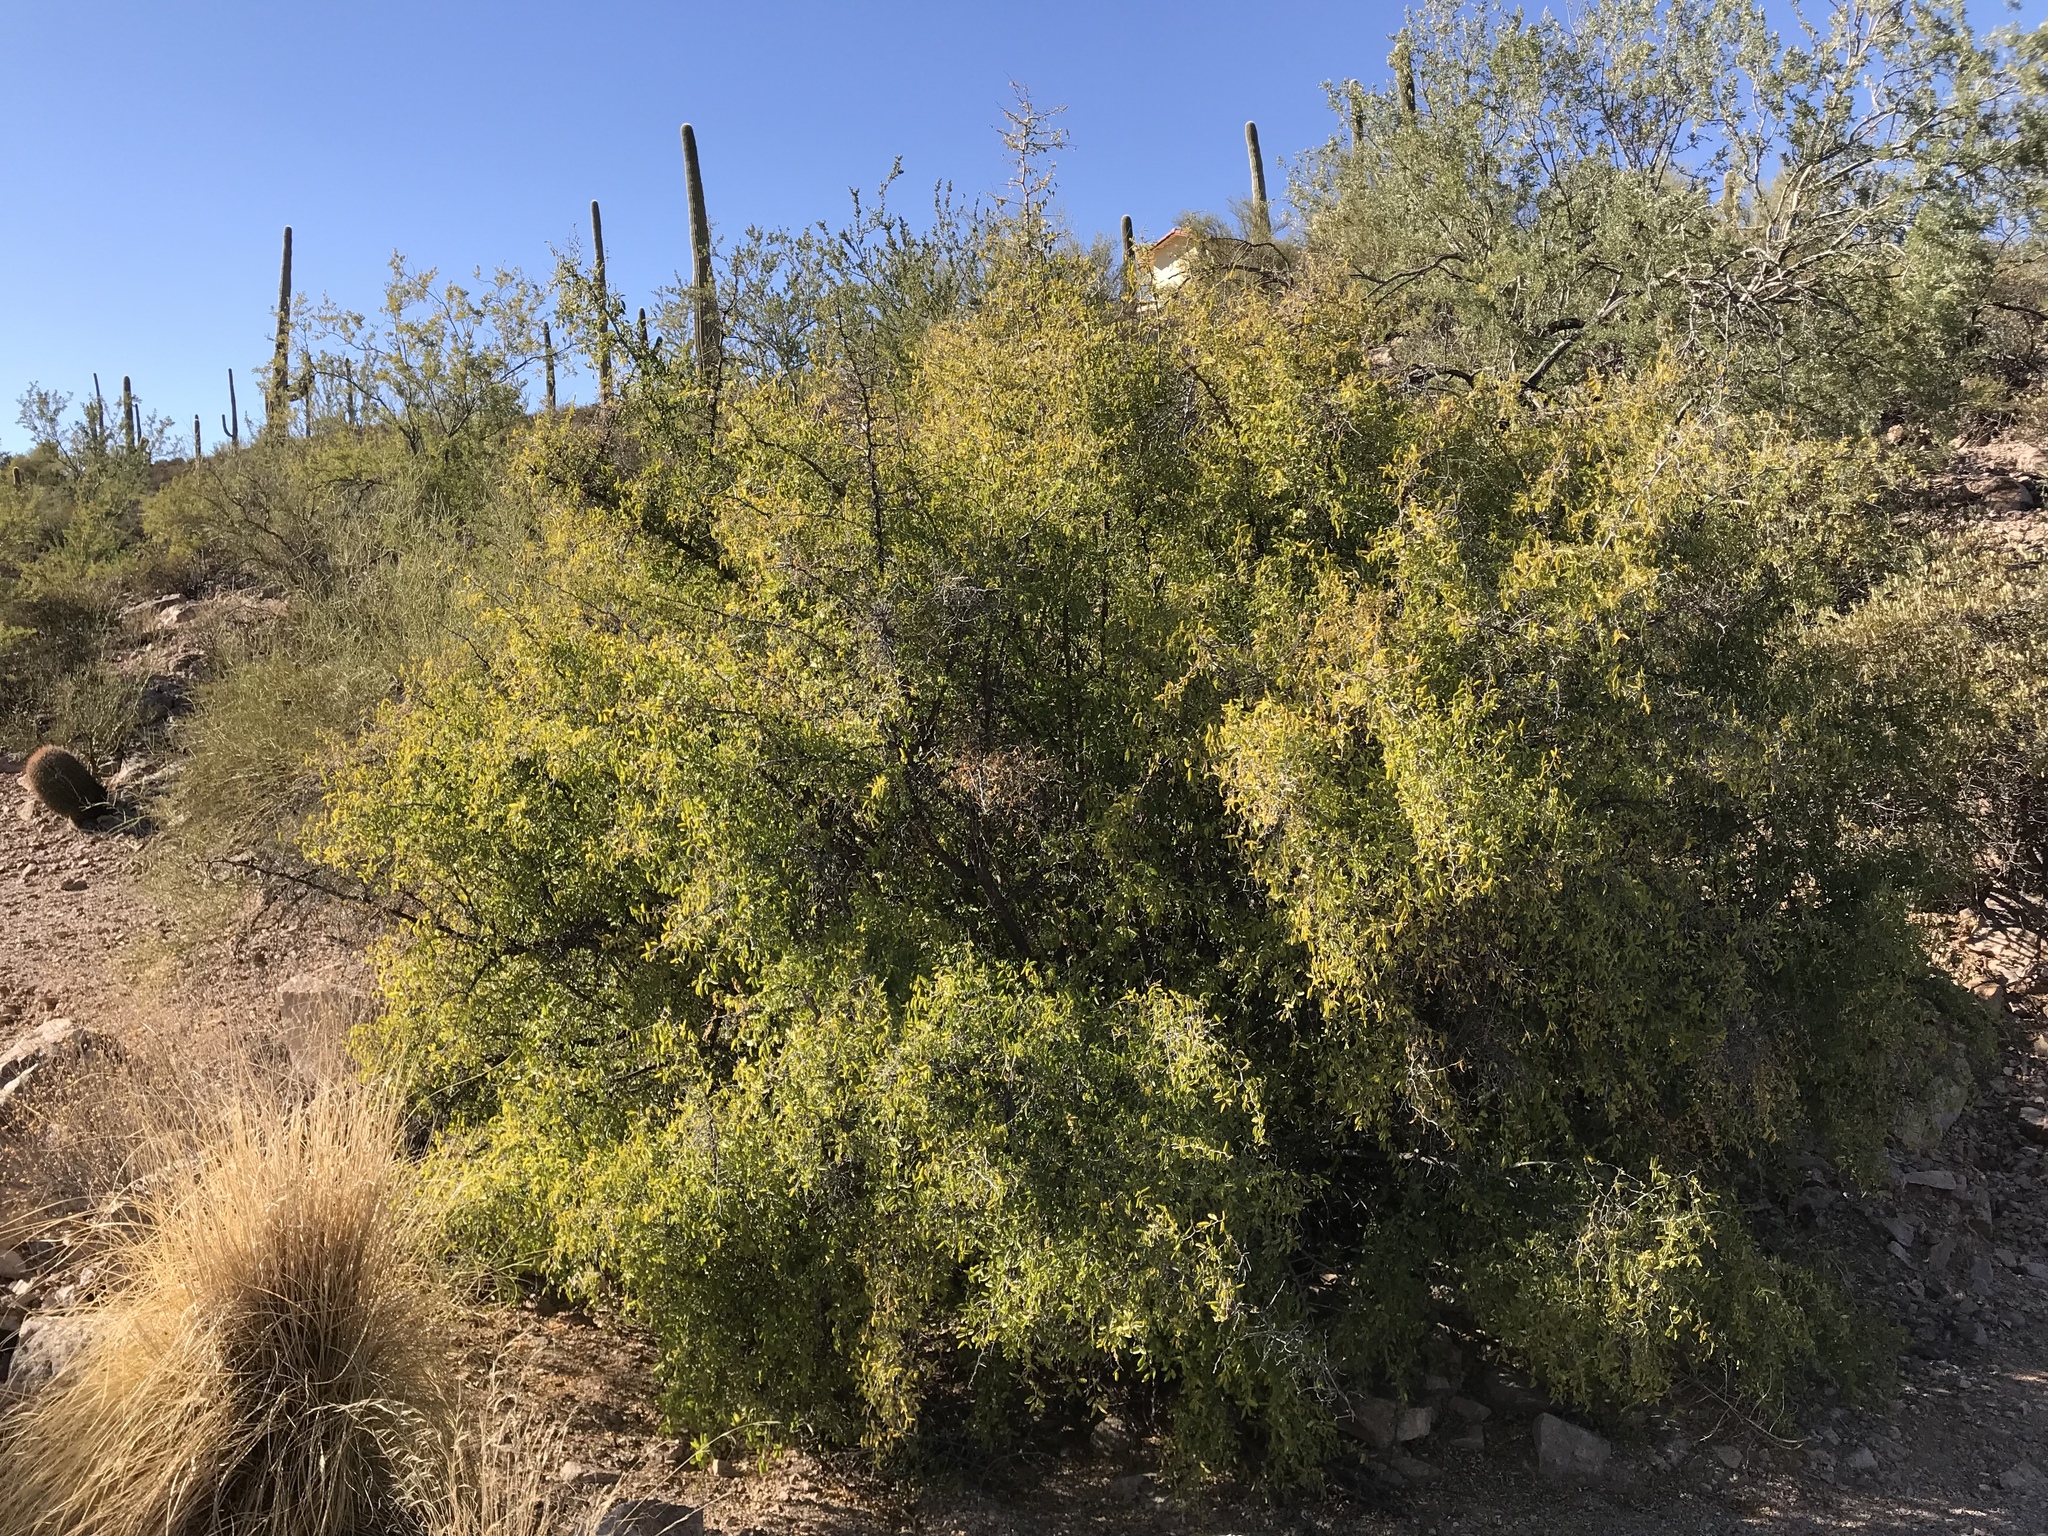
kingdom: Plantae
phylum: Tracheophyta
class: Magnoliopsida
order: Rosales
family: Cannabaceae
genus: Celtis
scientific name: Celtis pallida
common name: Desert hackberry
